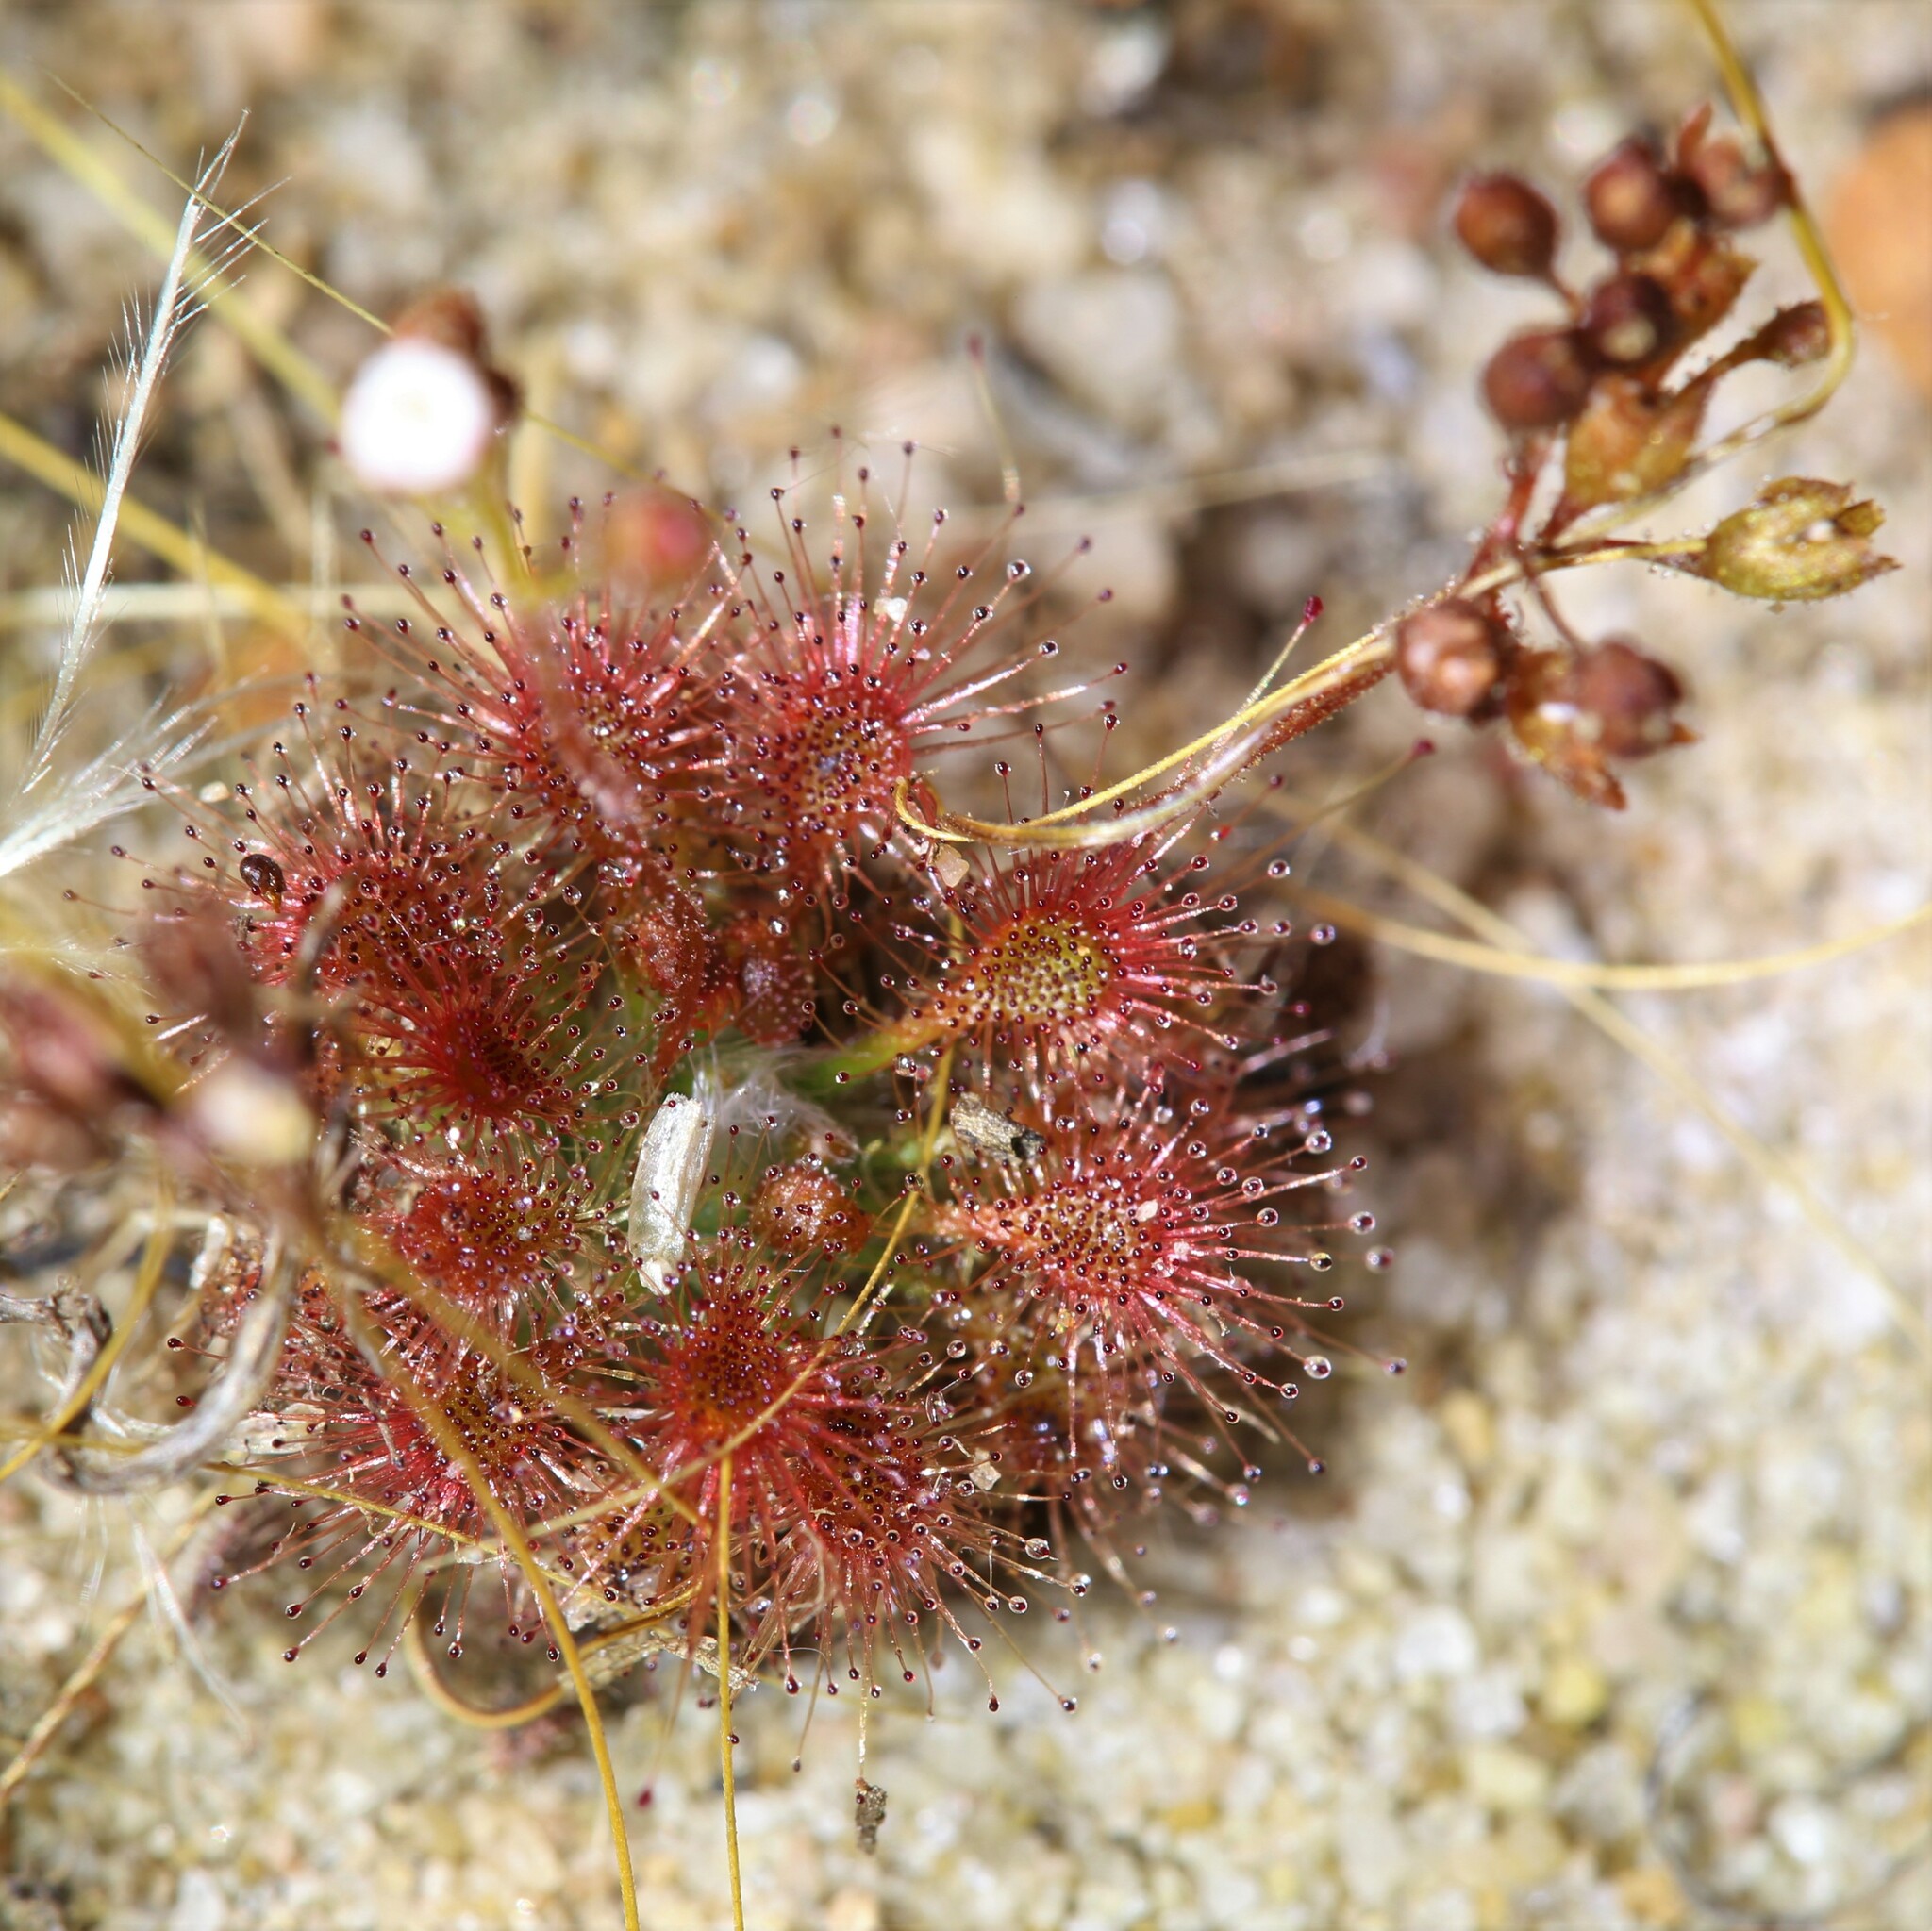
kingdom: Plantae
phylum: Tracheophyta
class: Magnoliopsida
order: Caryophyllales
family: Droseraceae
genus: Drosera
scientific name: Drosera leucostigma
